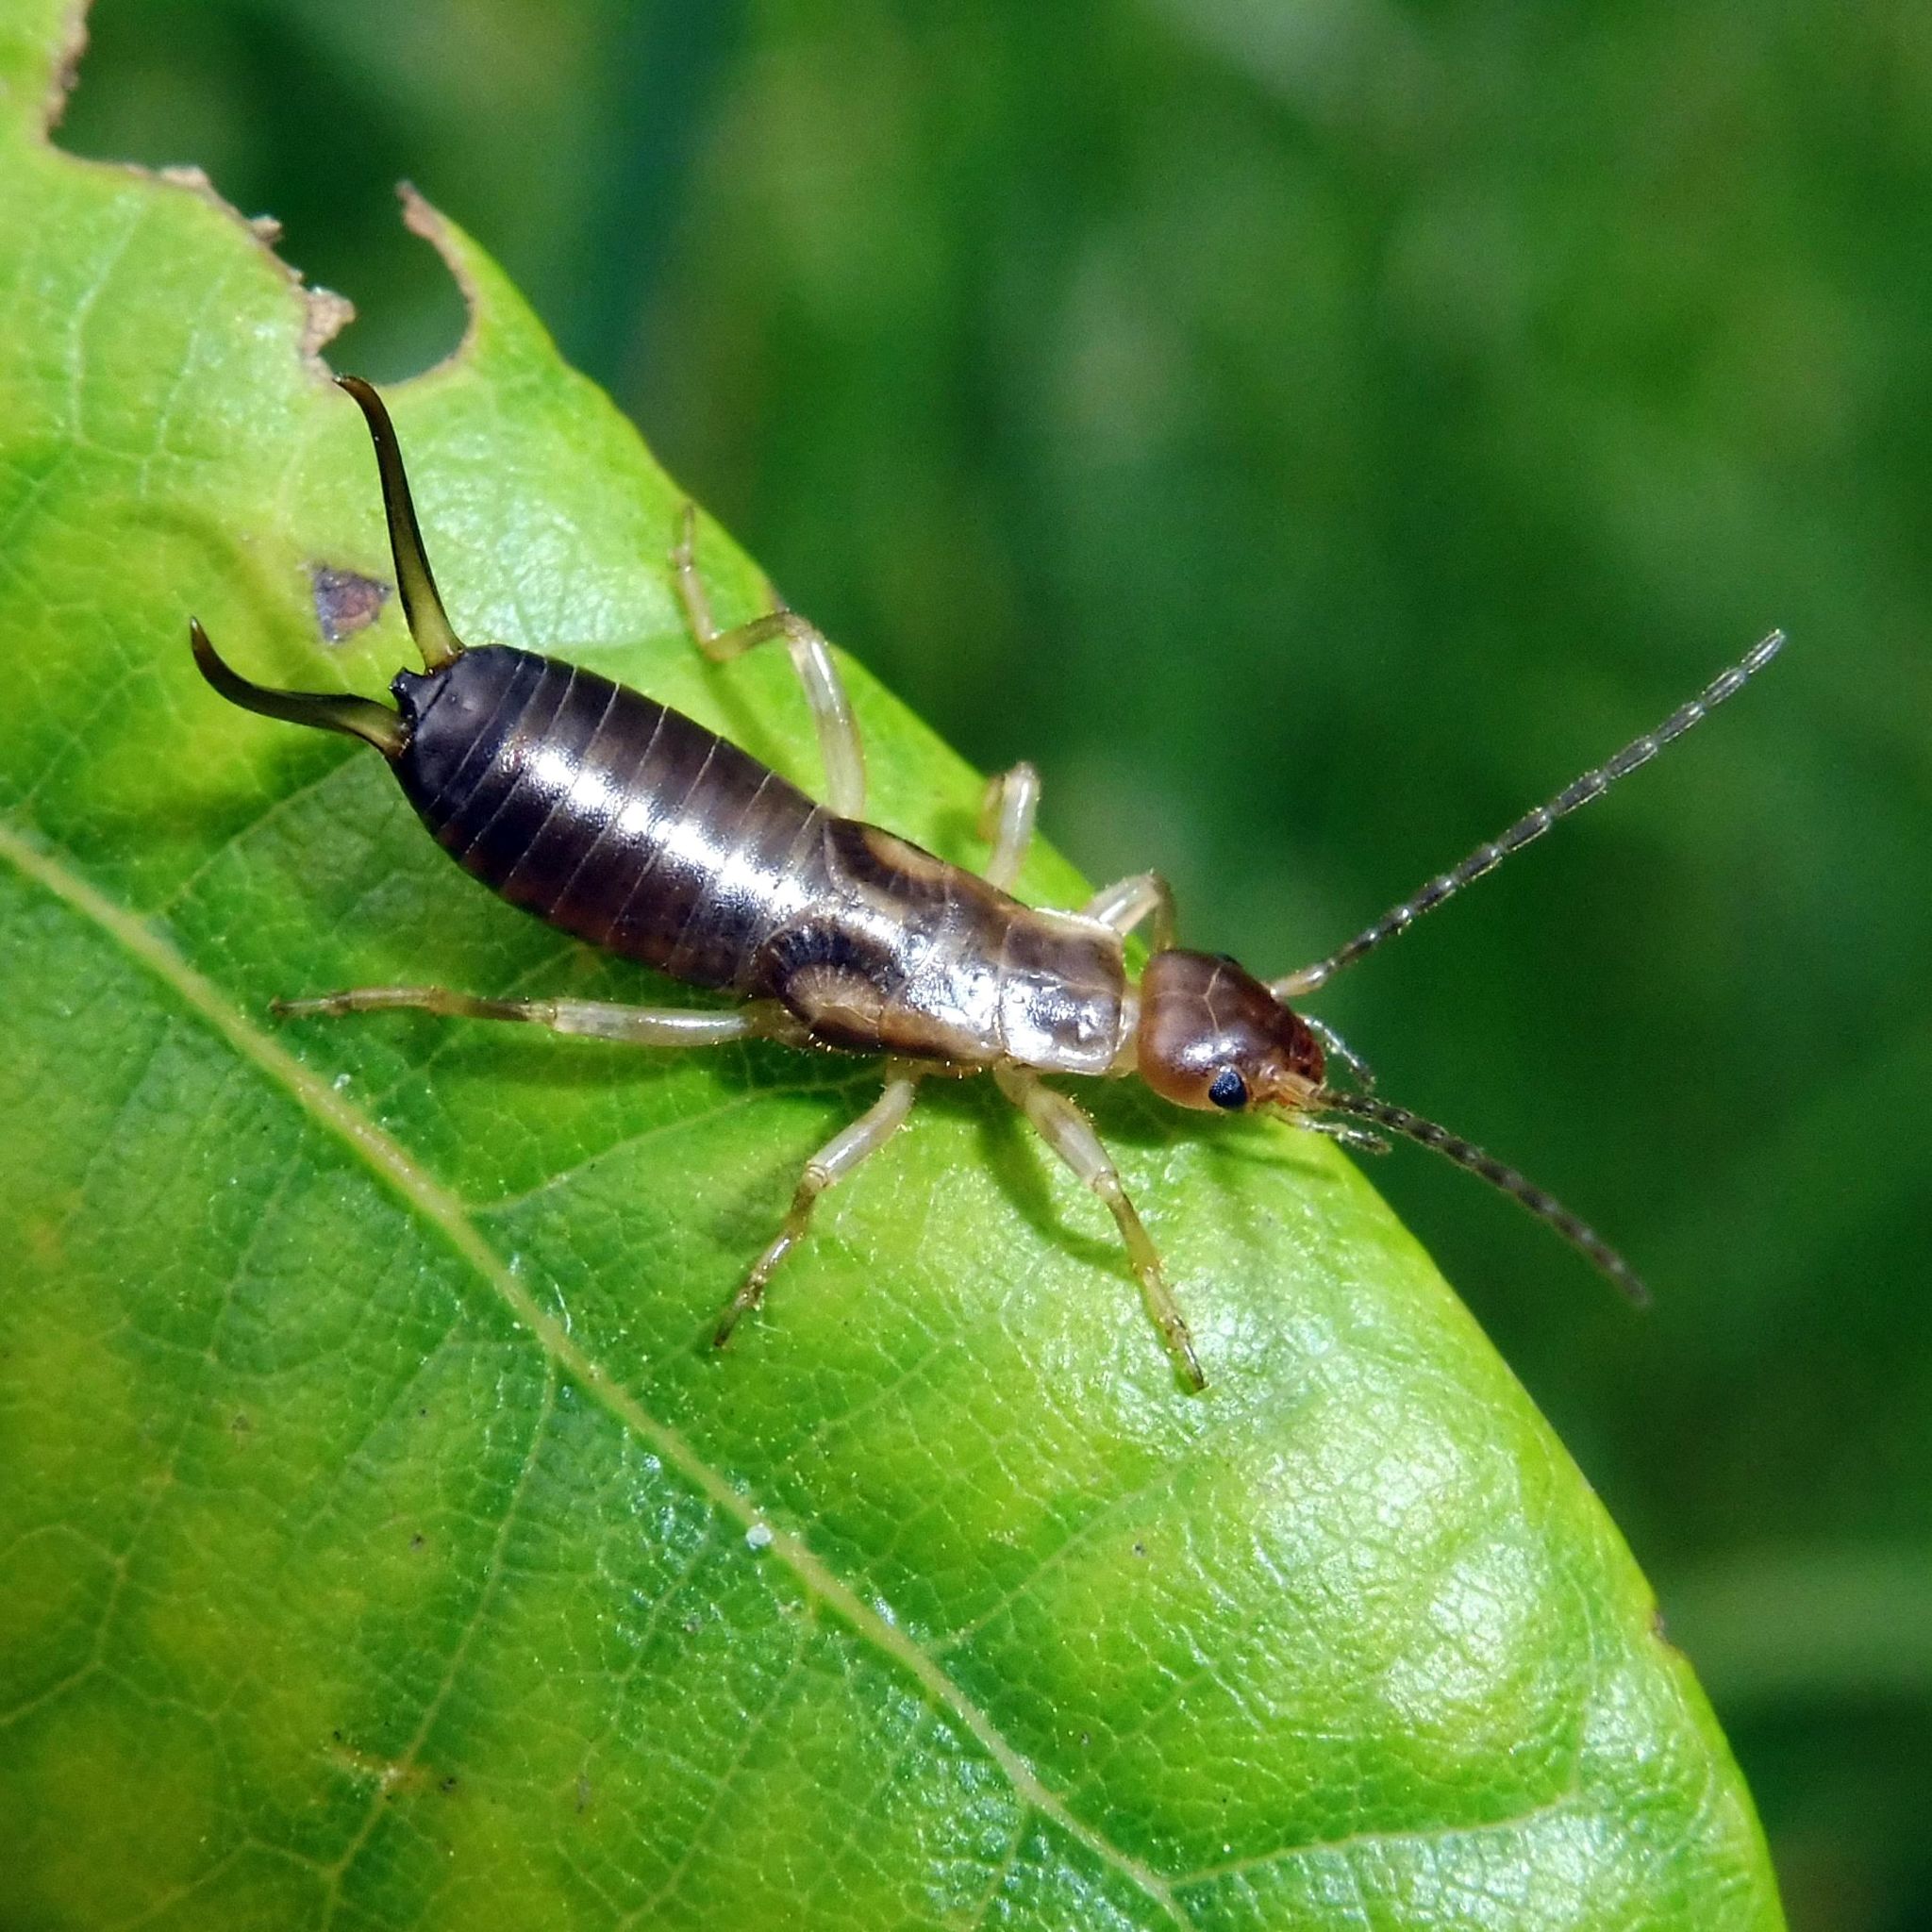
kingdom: Animalia
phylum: Arthropoda
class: Insecta
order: Dermaptera
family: Forficulidae
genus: Forficula
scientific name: Forficula
